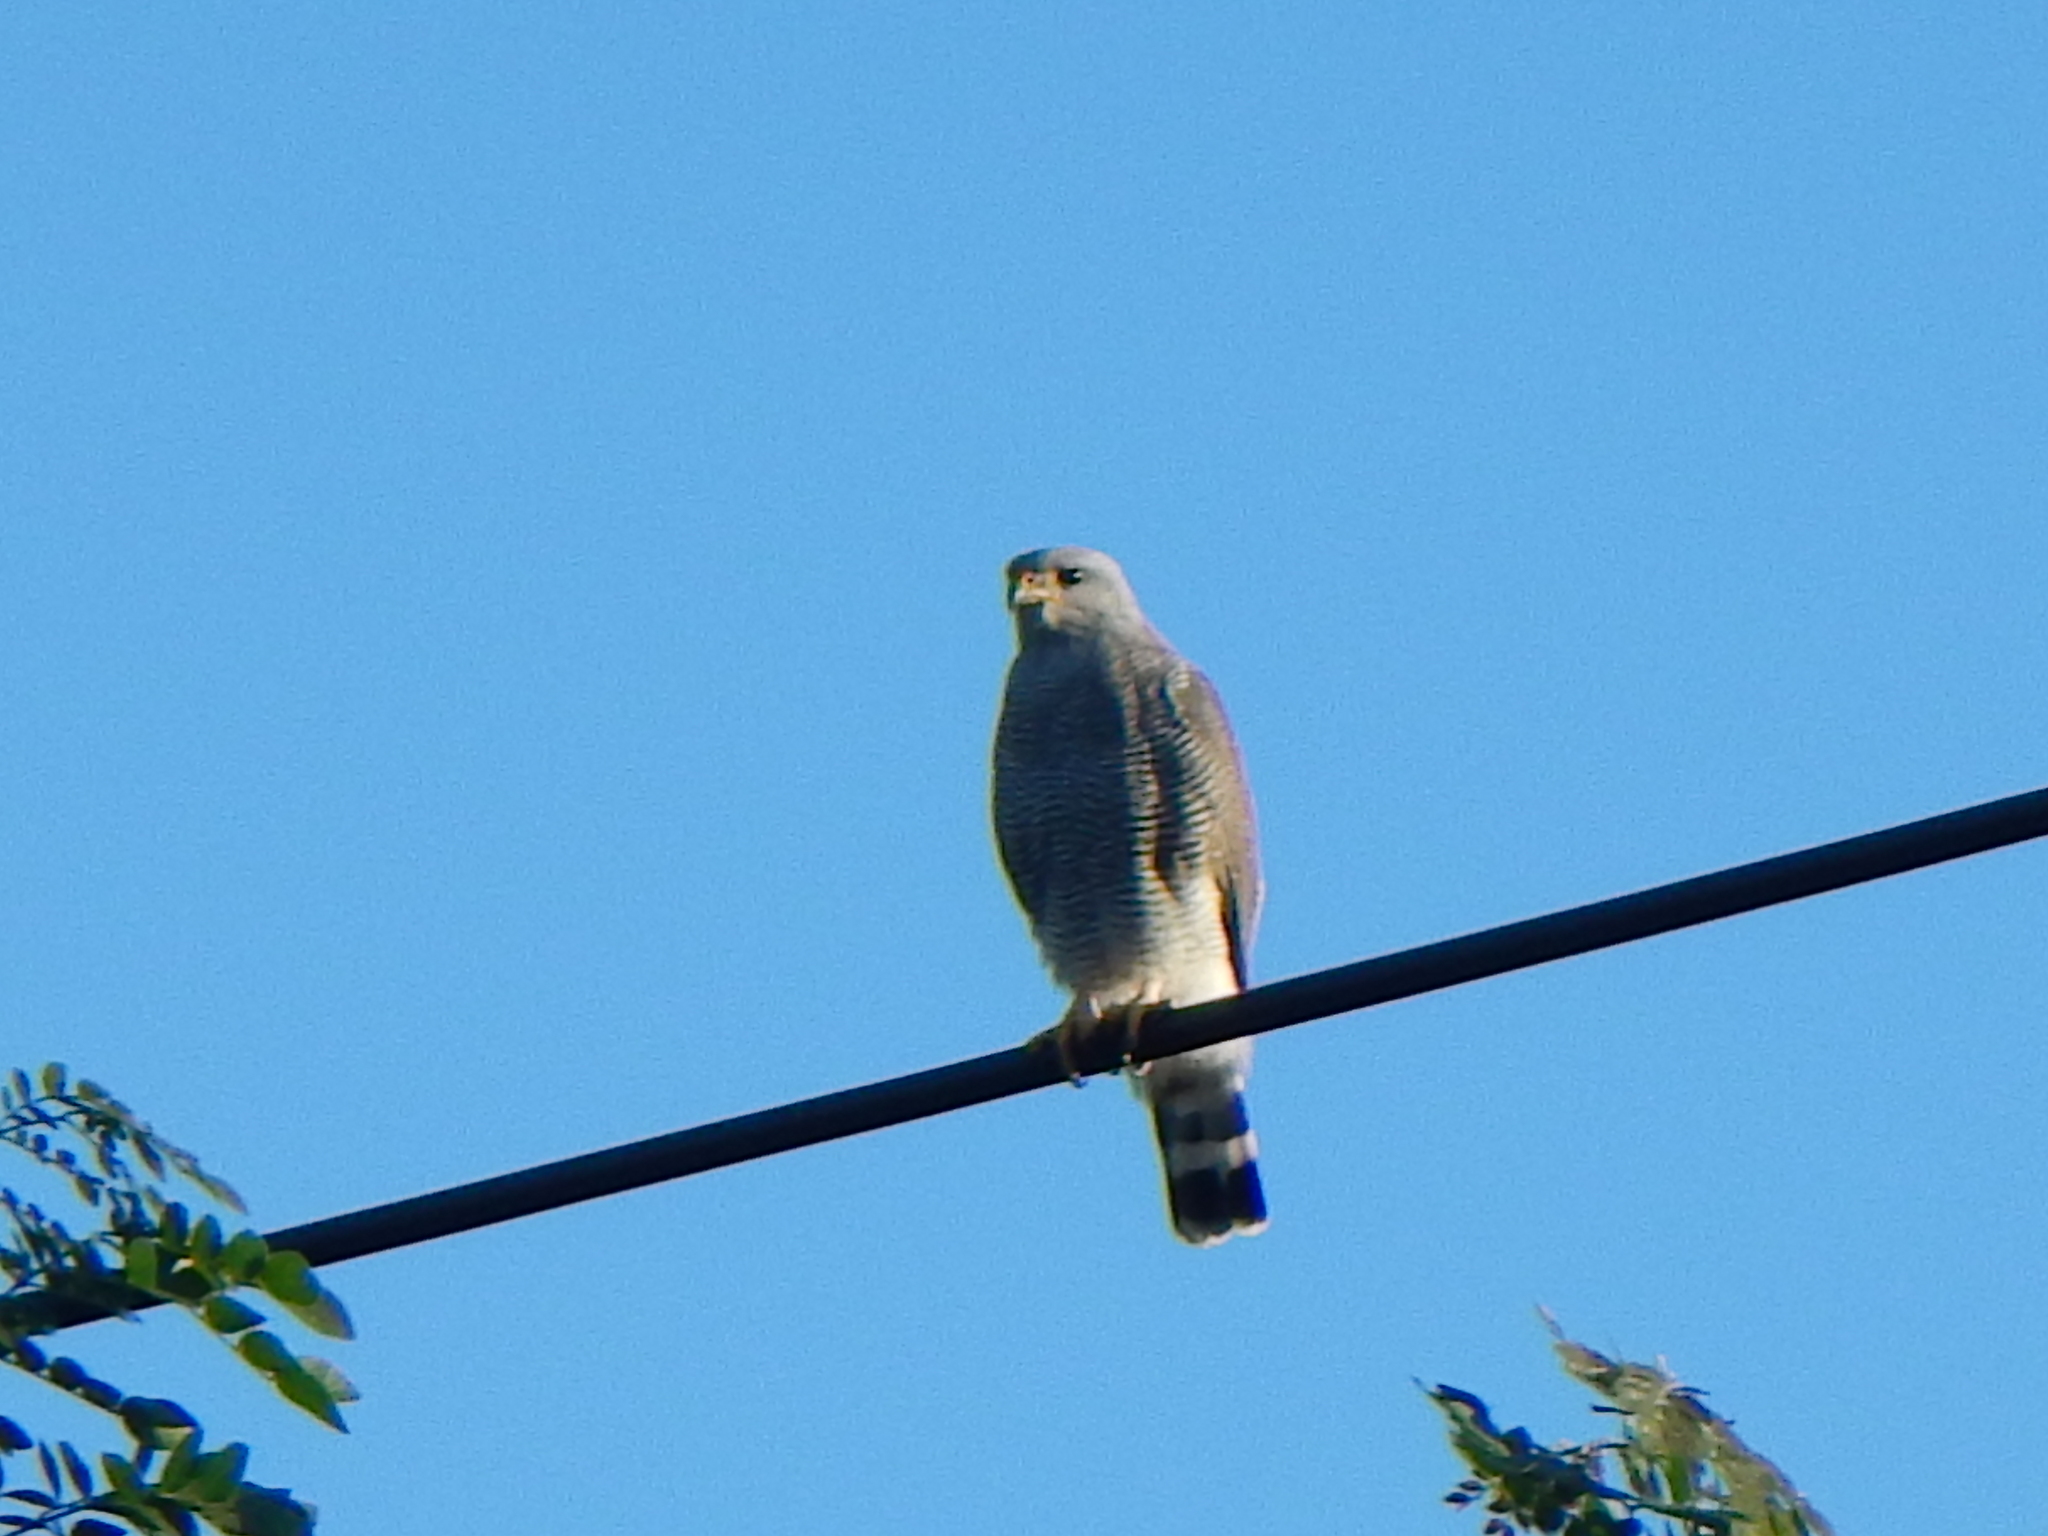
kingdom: Animalia
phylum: Chordata
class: Aves
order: Accipitriformes
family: Accipitridae
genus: Buteo
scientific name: Buteo nitidus
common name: Grey-lined hawk
